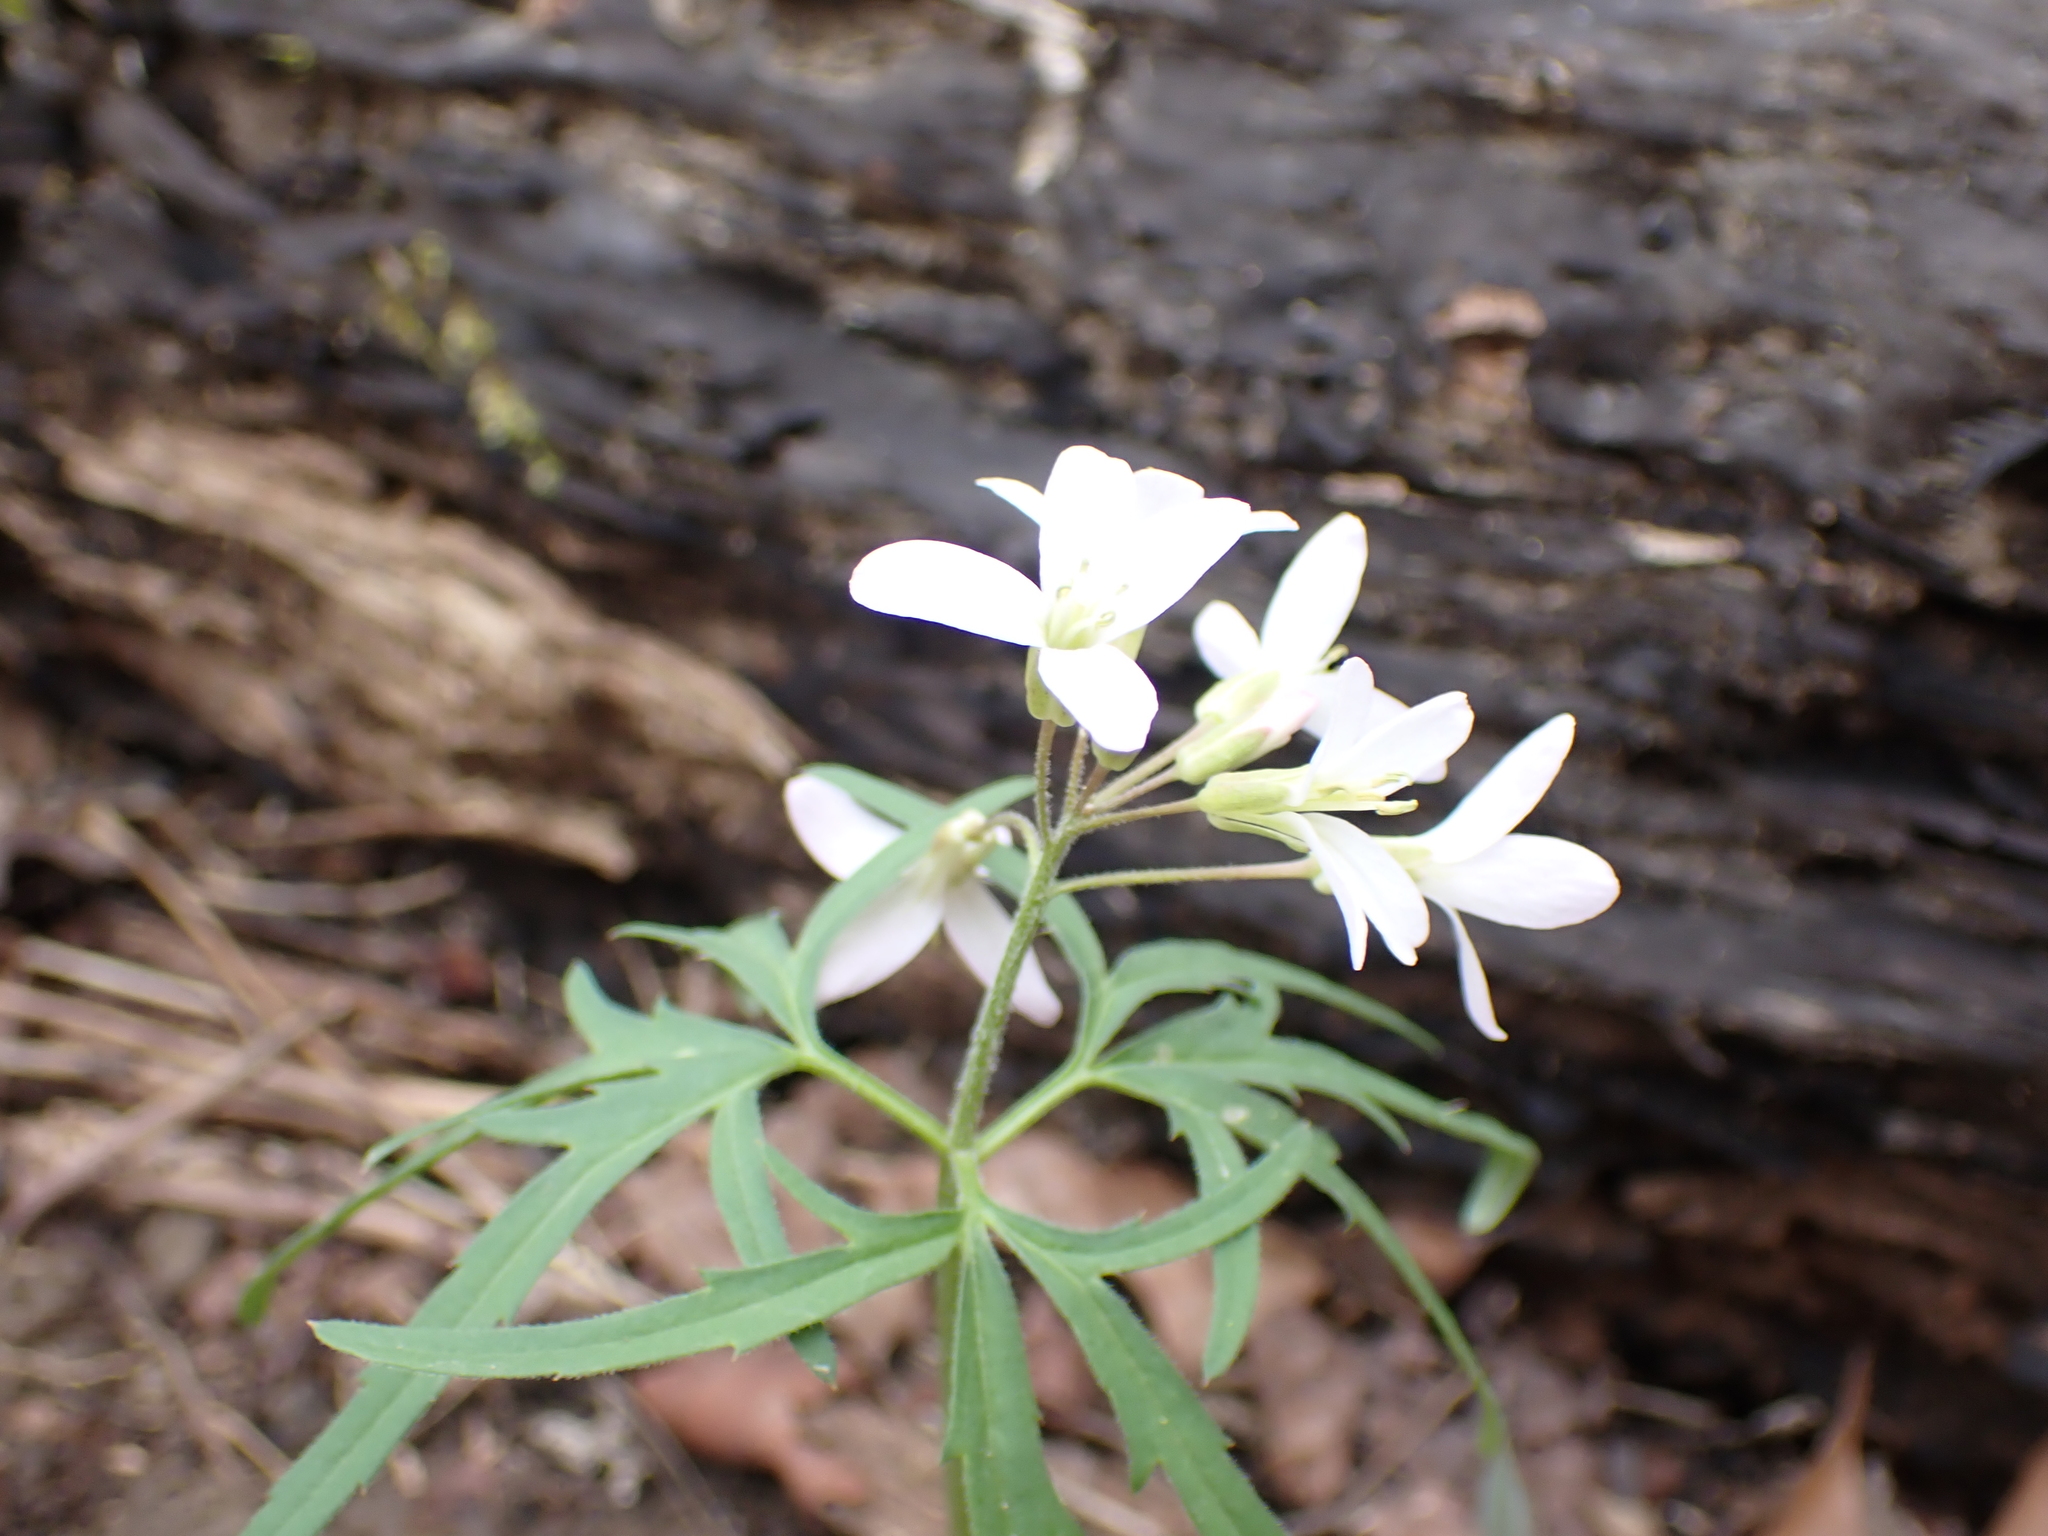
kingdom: Plantae
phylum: Tracheophyta
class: Magnoliopsida
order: Brassicales
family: Brassicaceae
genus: Cardamine
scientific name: Cardamine concatenata
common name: Cut-leaf toothcup
